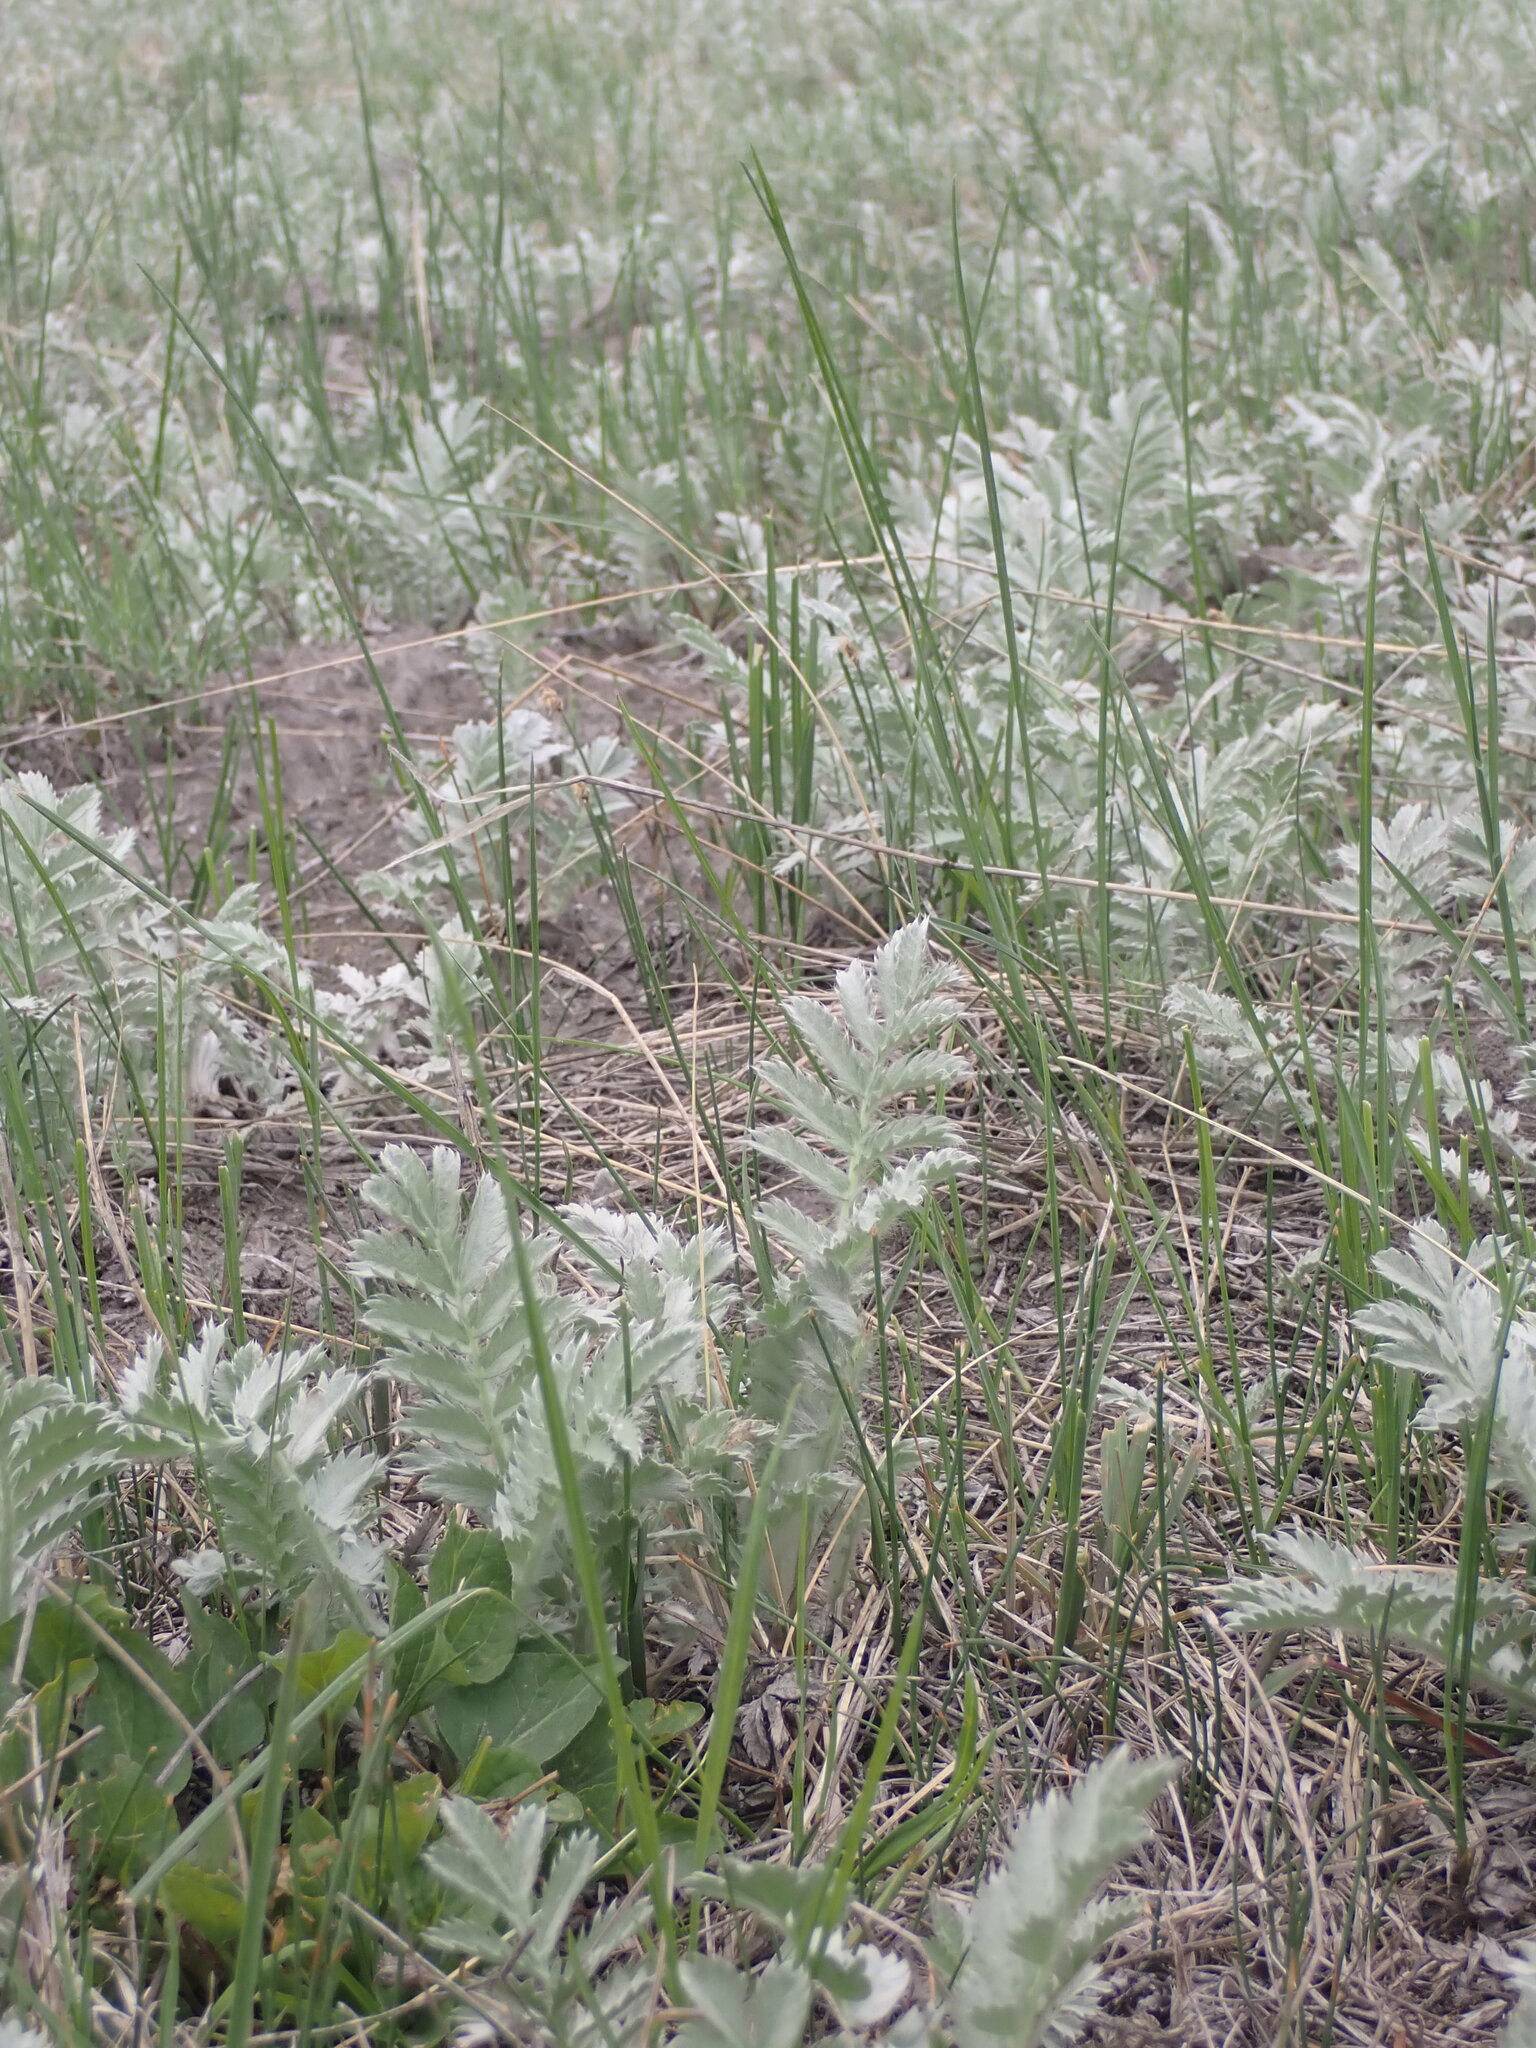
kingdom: Plantae
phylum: Tracheophyta
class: Magnoliopsida
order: Rosales
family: Rosaceae
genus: Argentina
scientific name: Argentina anserina
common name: Common silverweed
